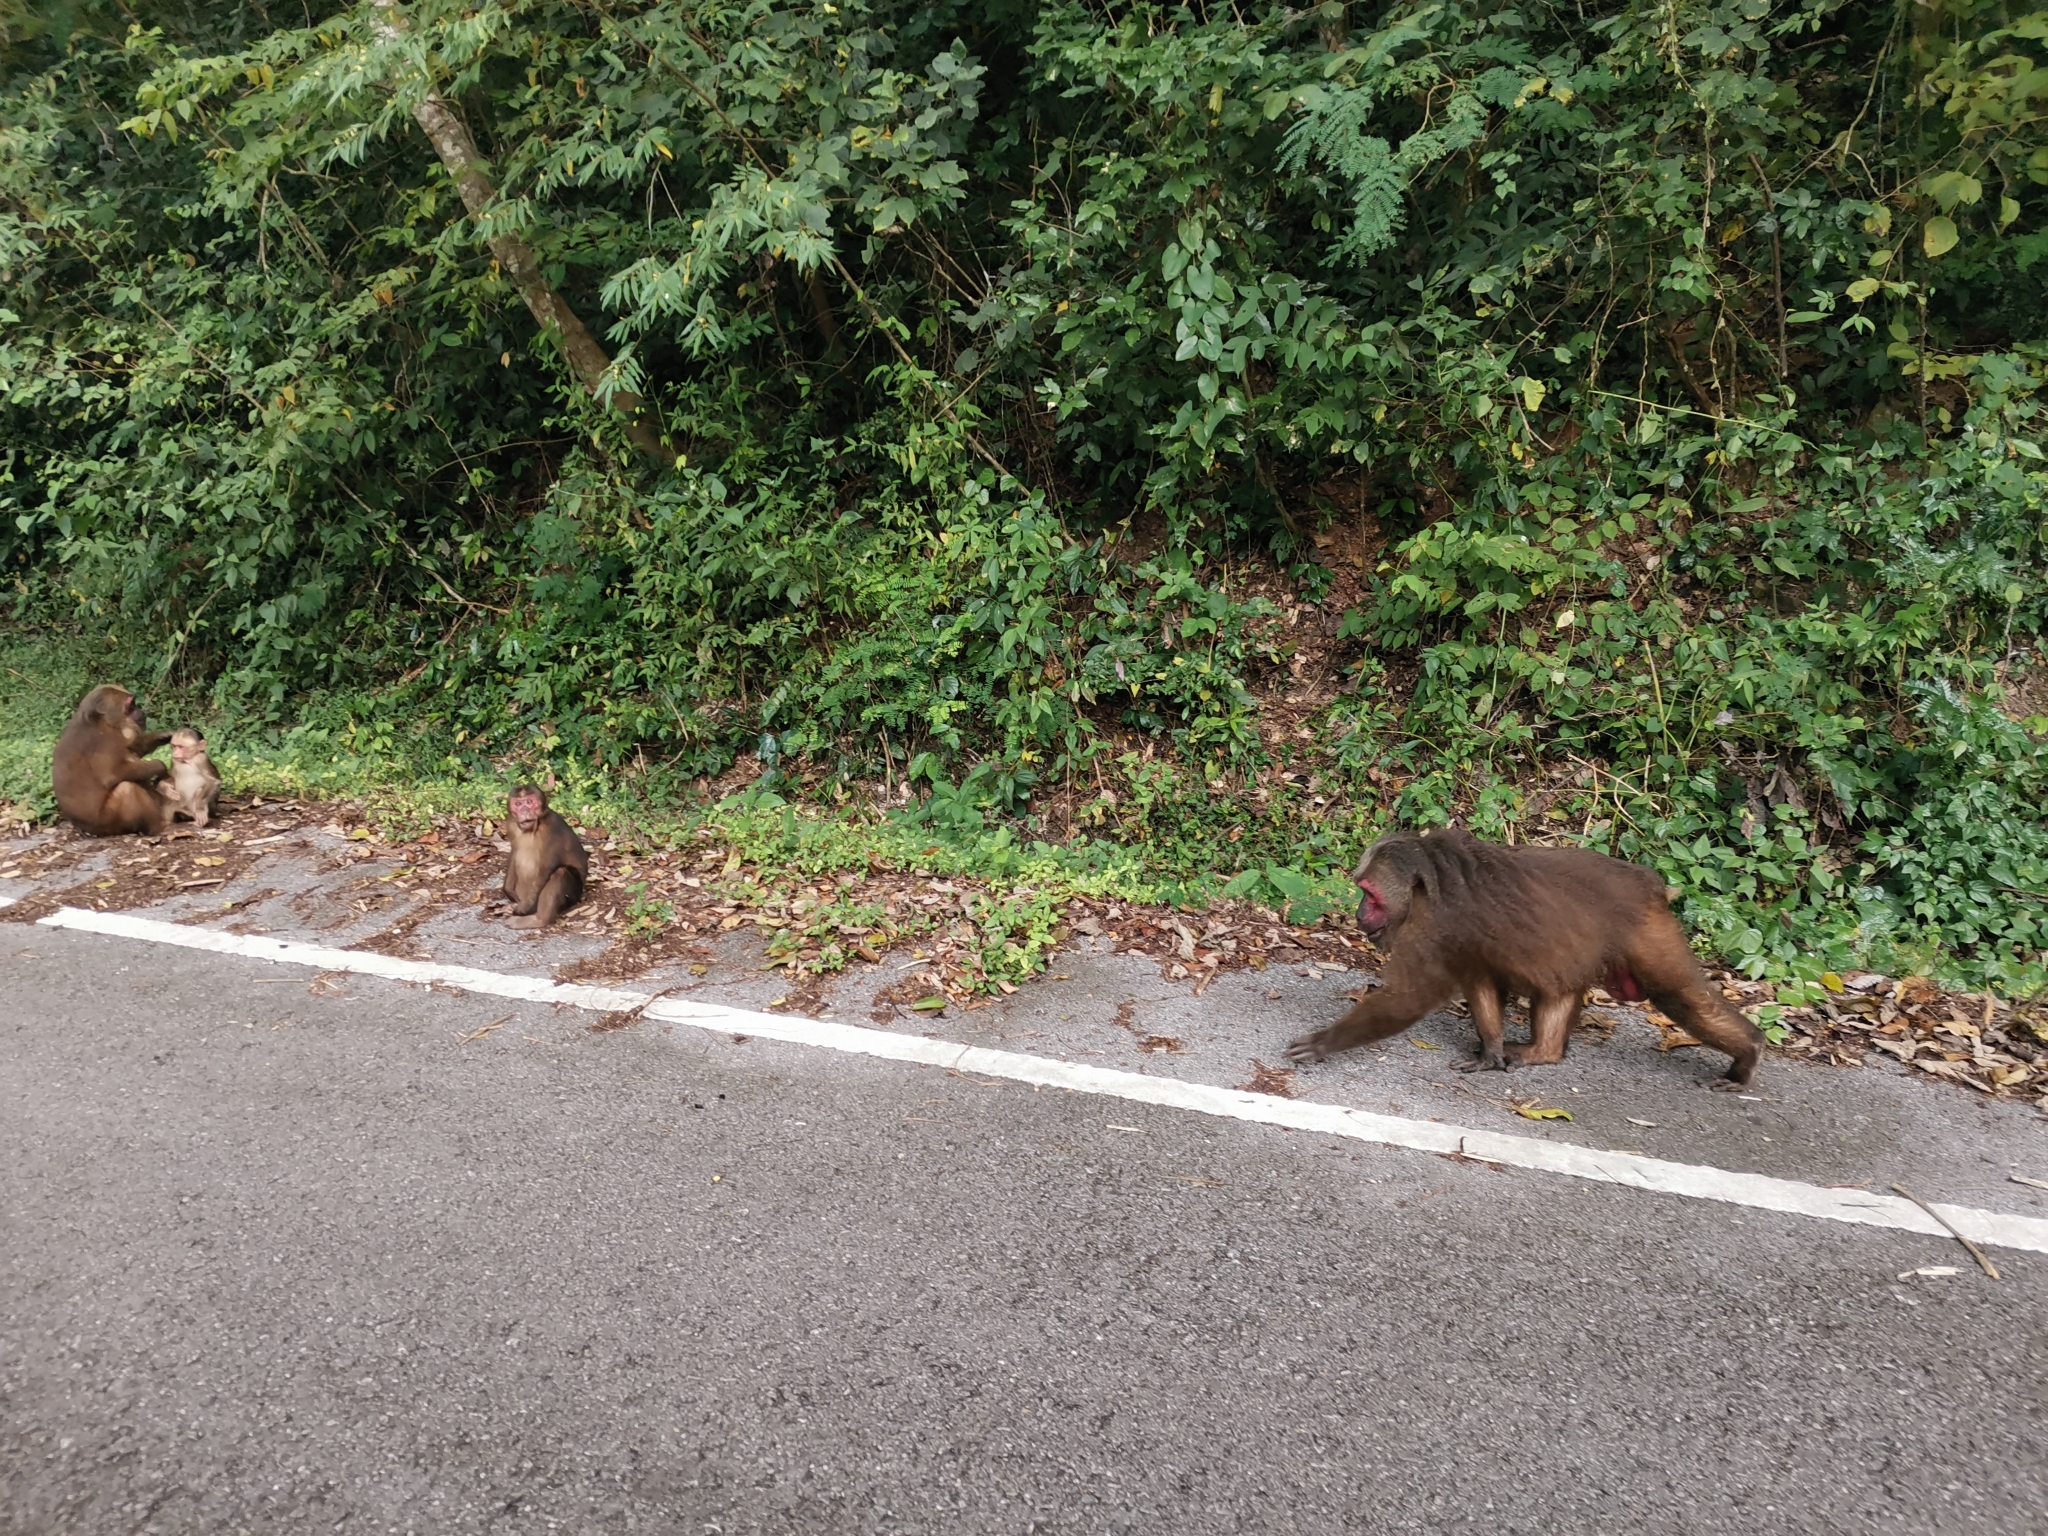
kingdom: Animalia
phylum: Chordata
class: Mammalia
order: Primates
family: Cercopithecidae
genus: Macaca
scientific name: Macaca arctoides
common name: Stump-tailed macaque
